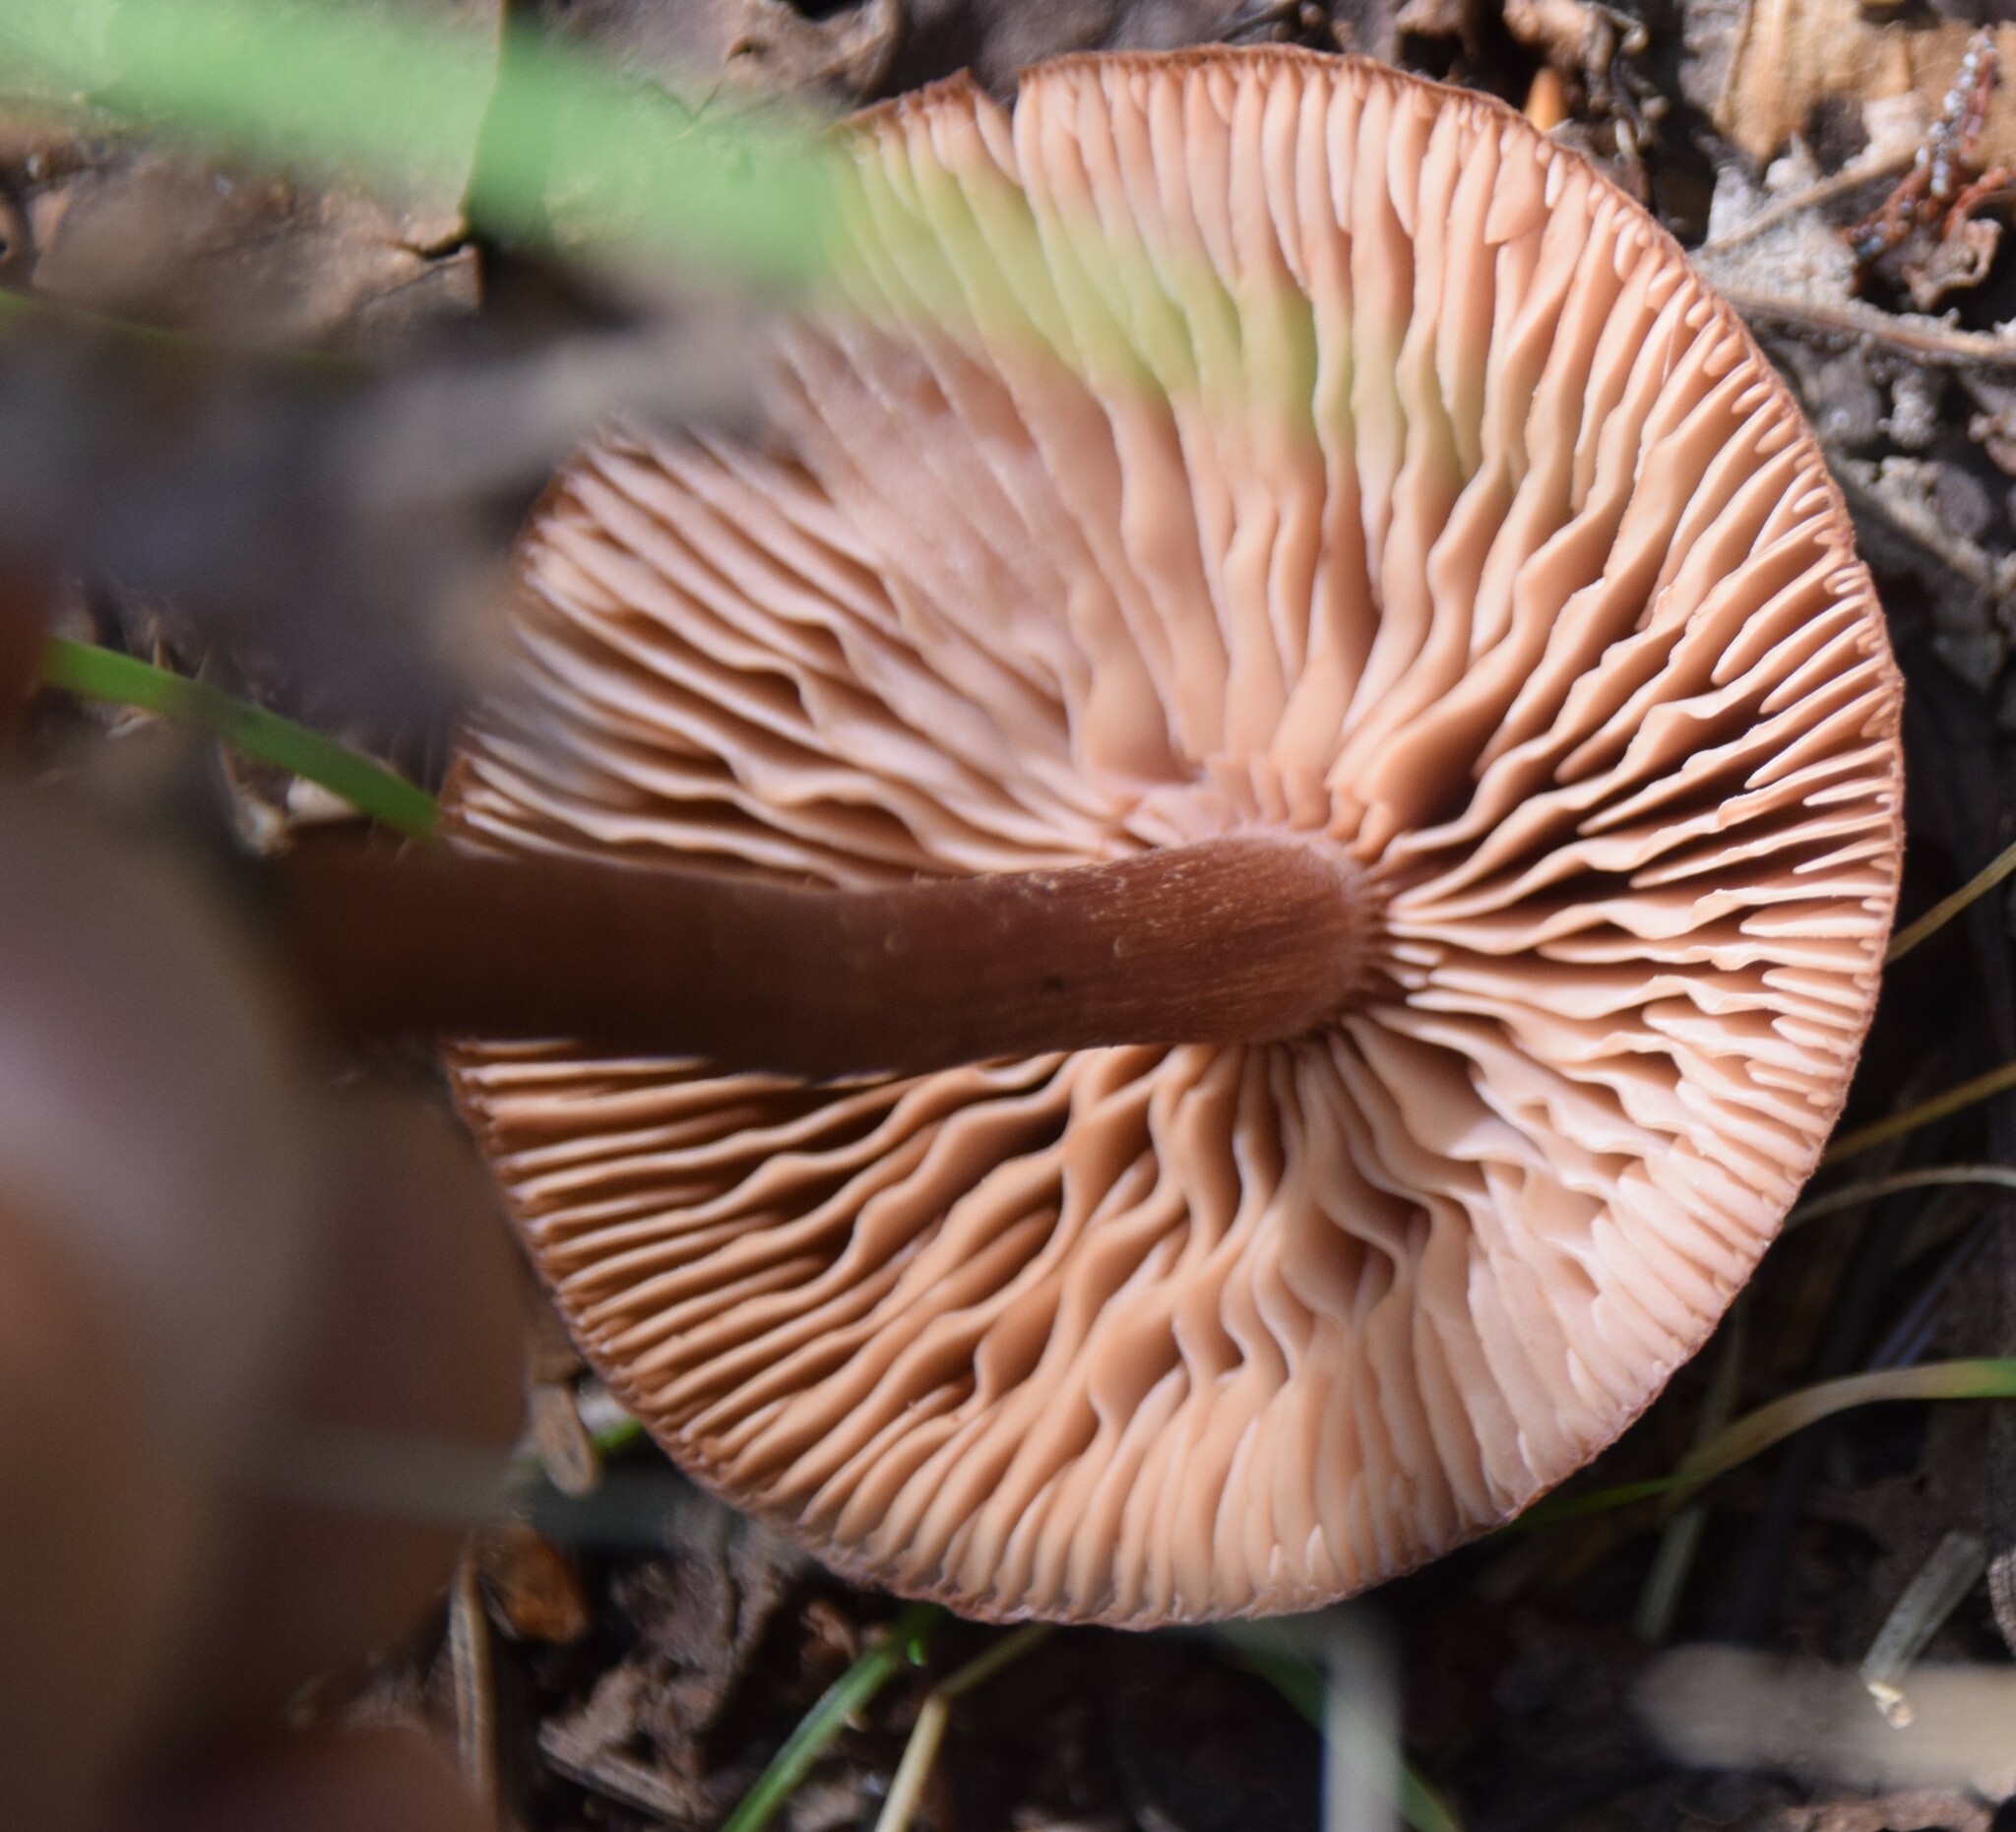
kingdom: Fungi
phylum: Basidiomycota
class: Agaricomycetes
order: Agaricales
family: Hydnangiaceae
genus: Laccaria
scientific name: Laccaria bicolor
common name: Bicoloured deceiver
